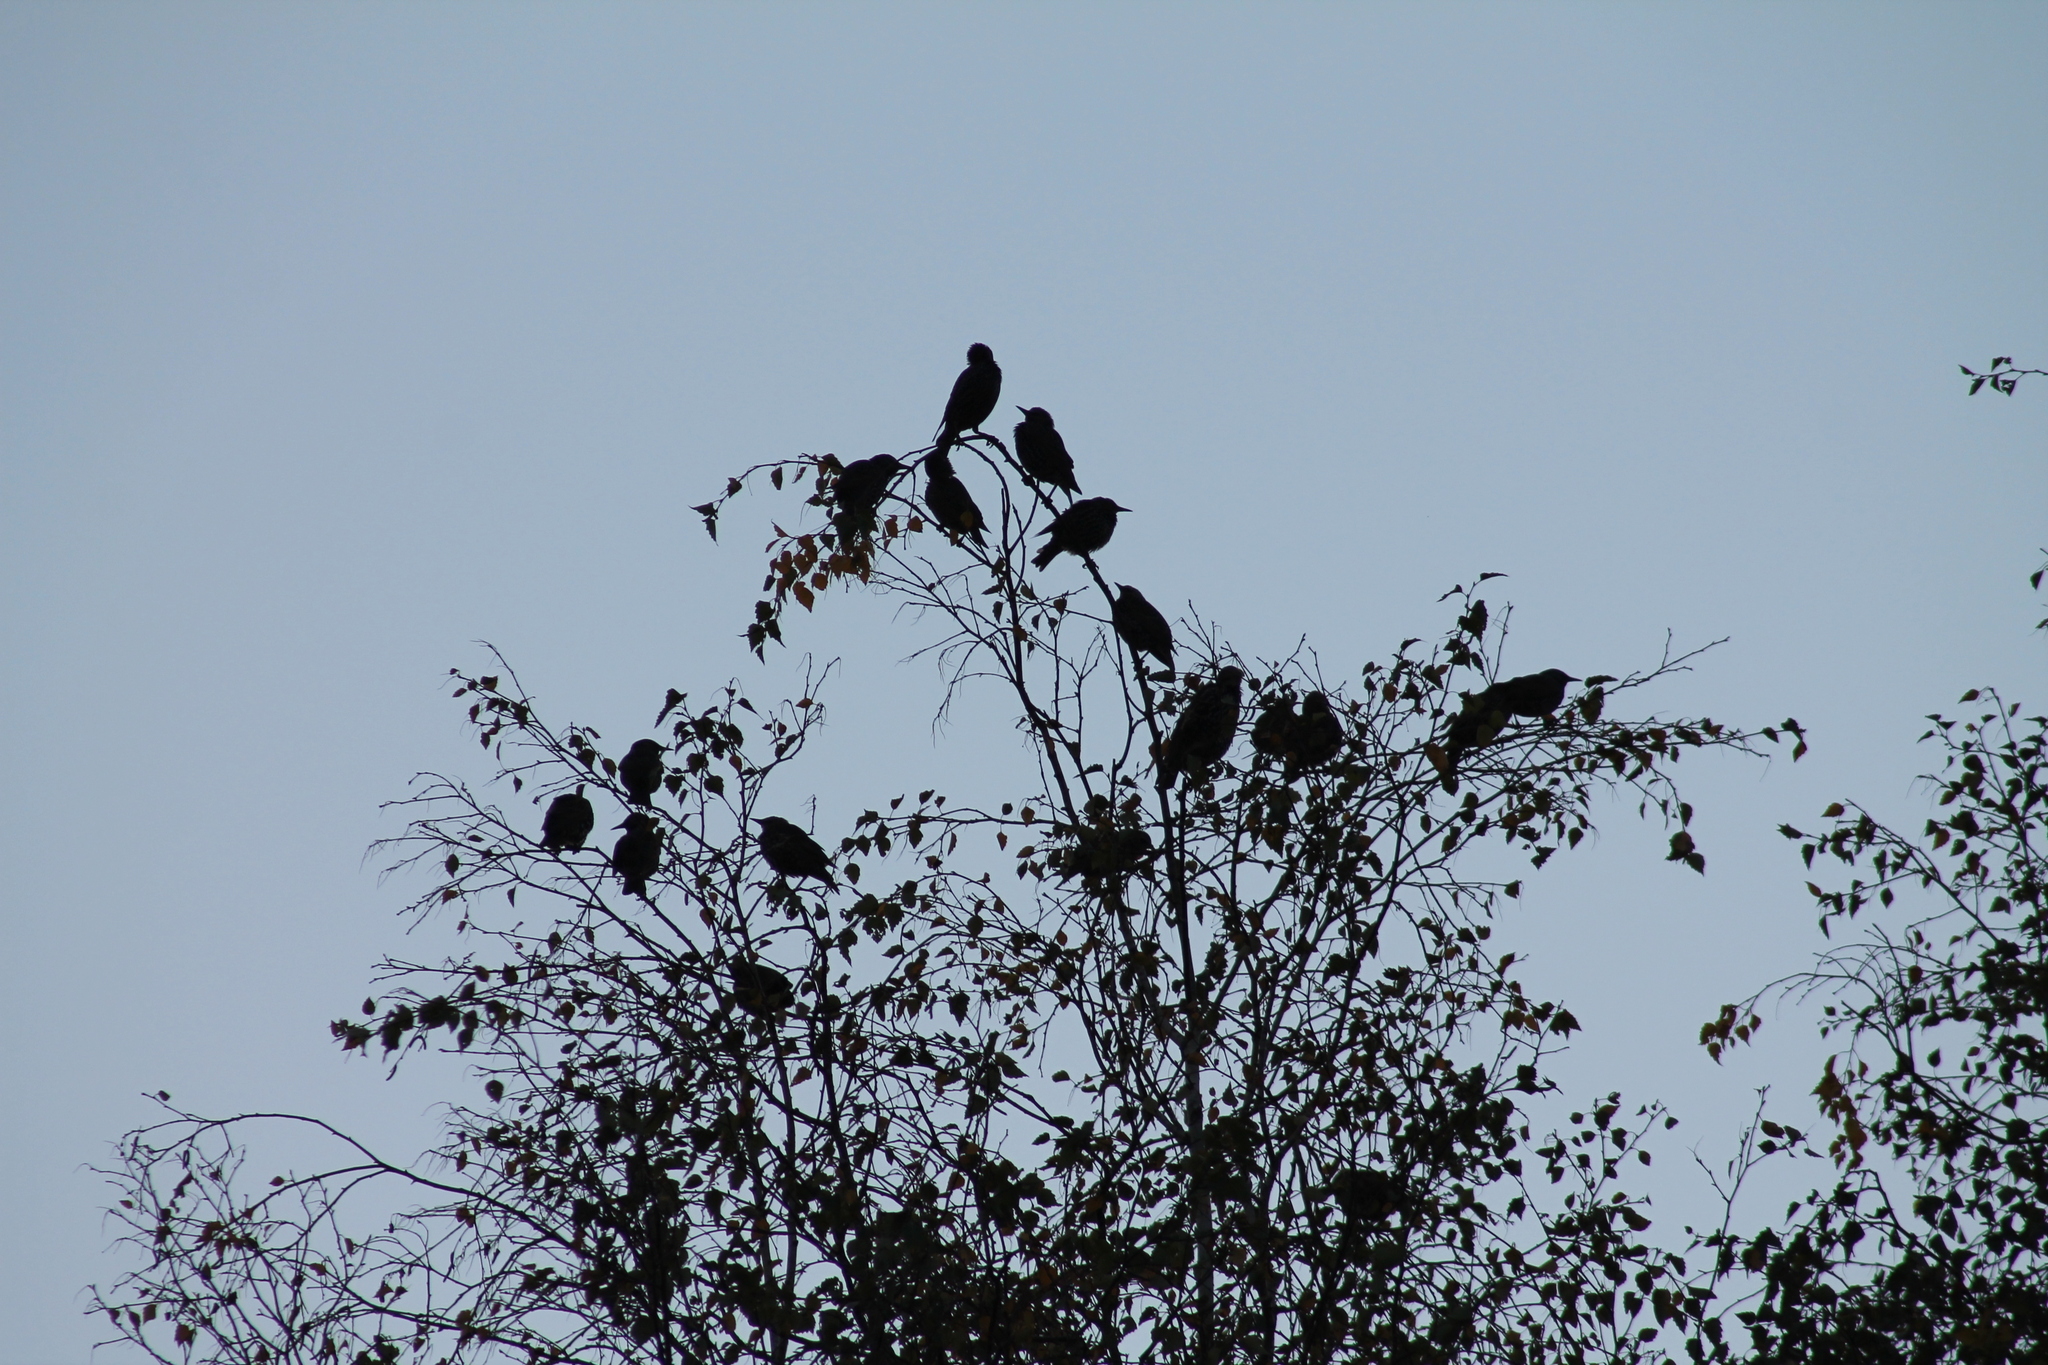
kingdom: Animalia
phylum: Chordata
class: Aves
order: Passeriformes
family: Sturnidae
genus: Sturnus
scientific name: Sturnus vulgaris
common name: Common starling
